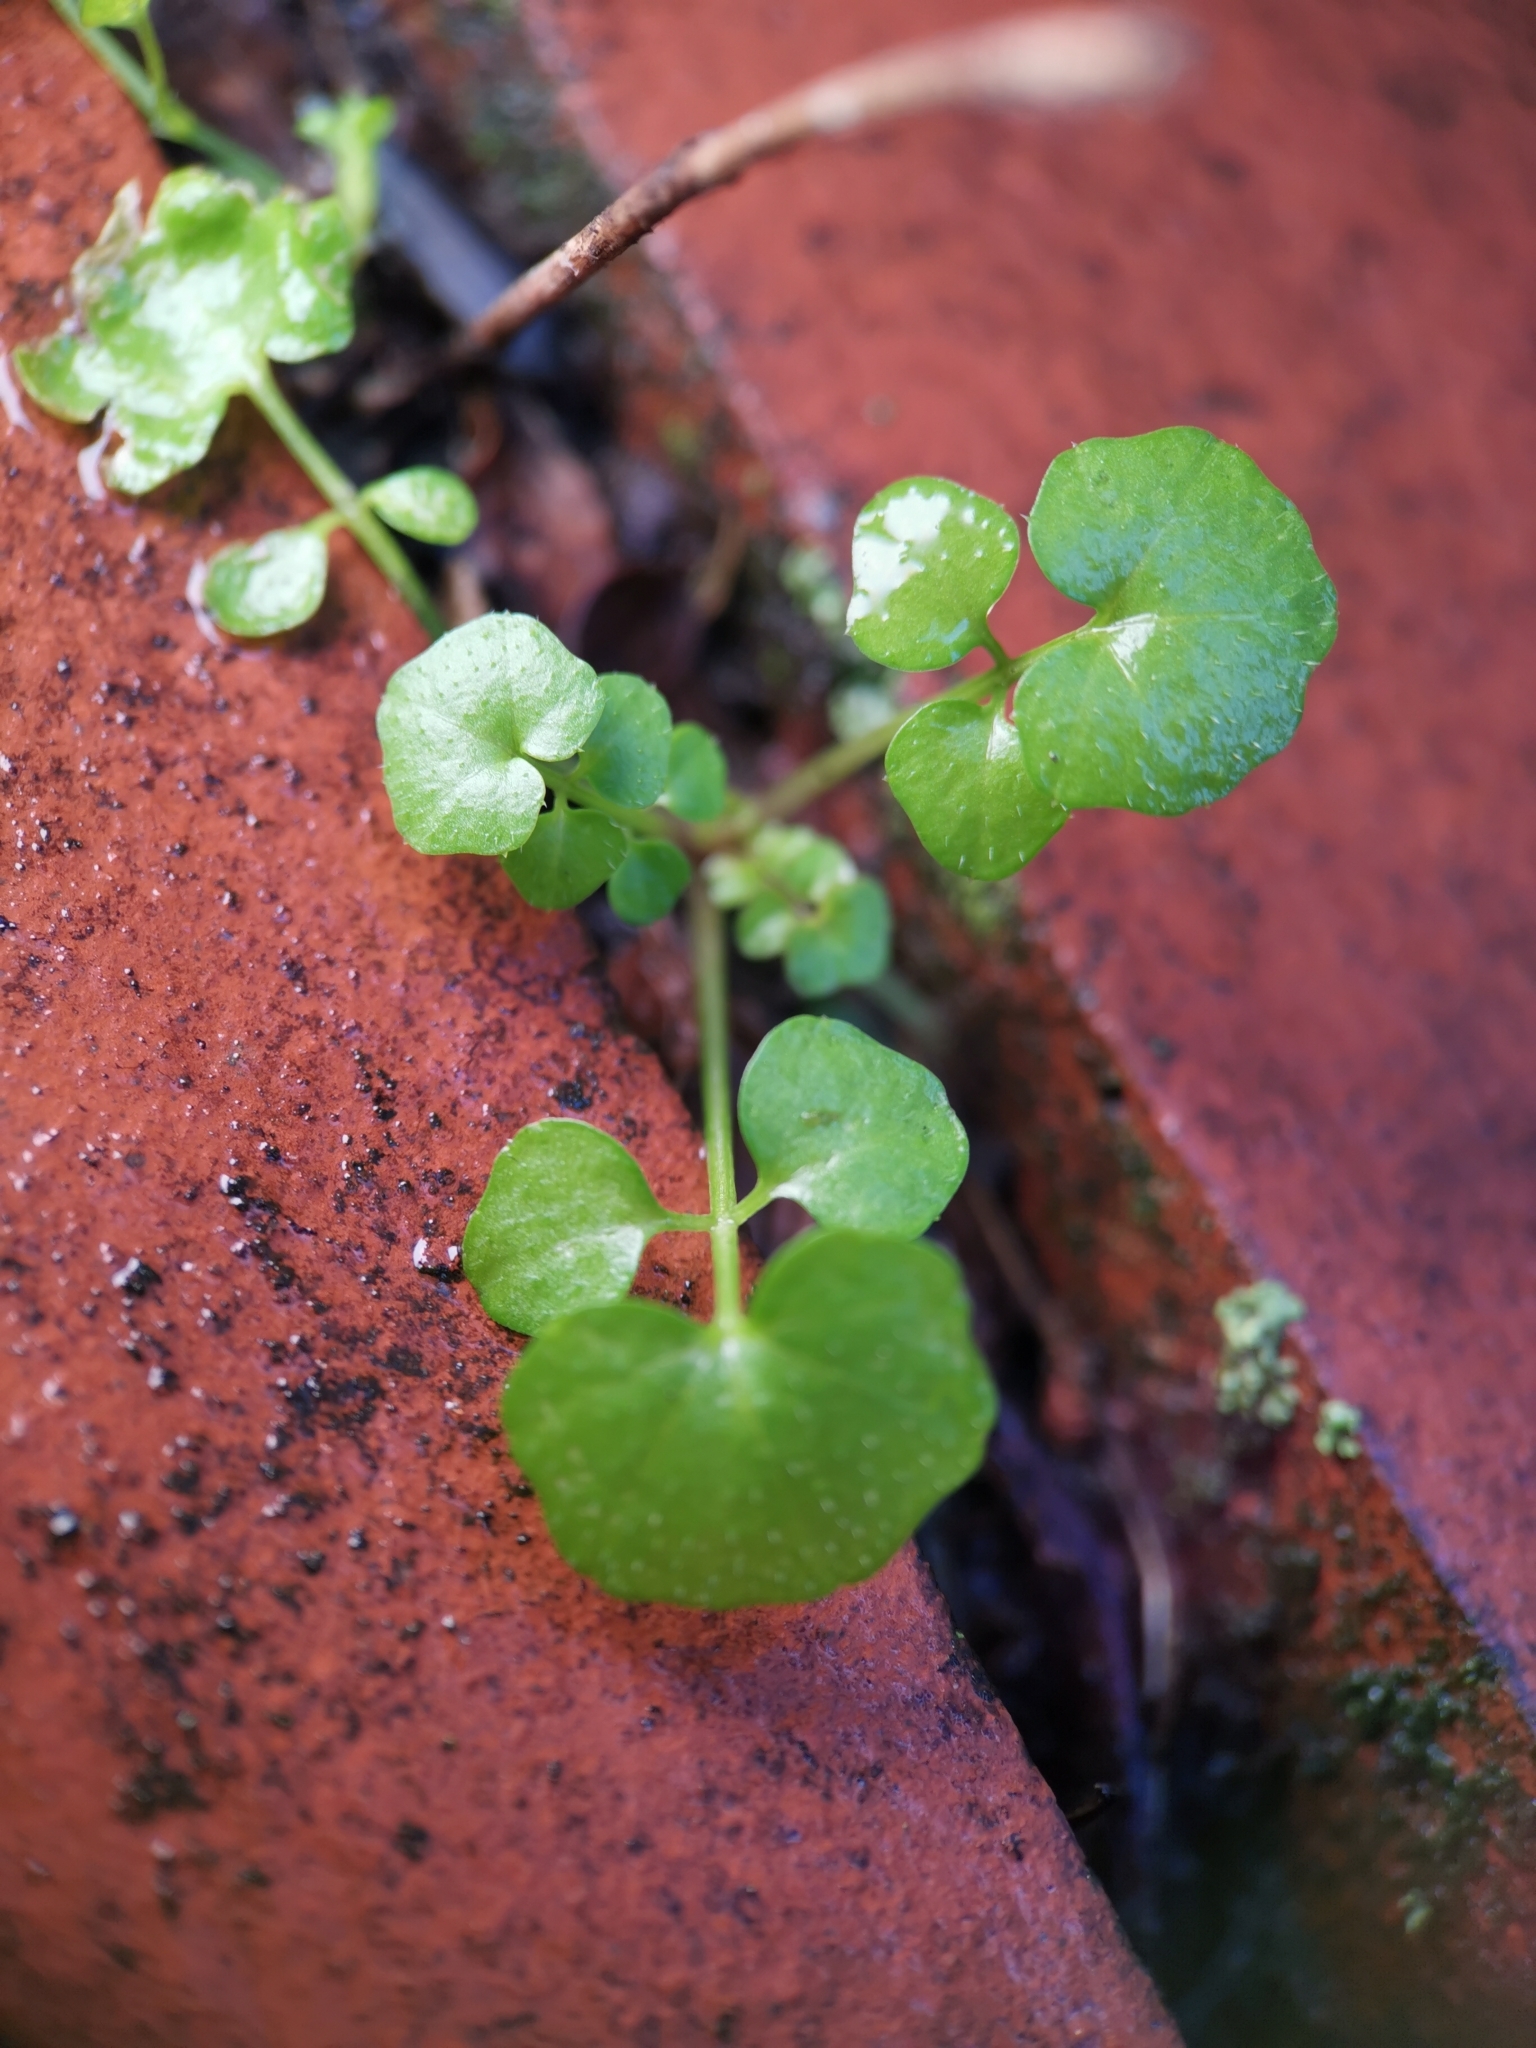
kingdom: Plantae
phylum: Tracheophyta
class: Magnoliopsida
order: Brassicales
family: Brassicaceae
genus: Cardamine
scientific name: Cardamine hirsuta
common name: Hairy bittercress
